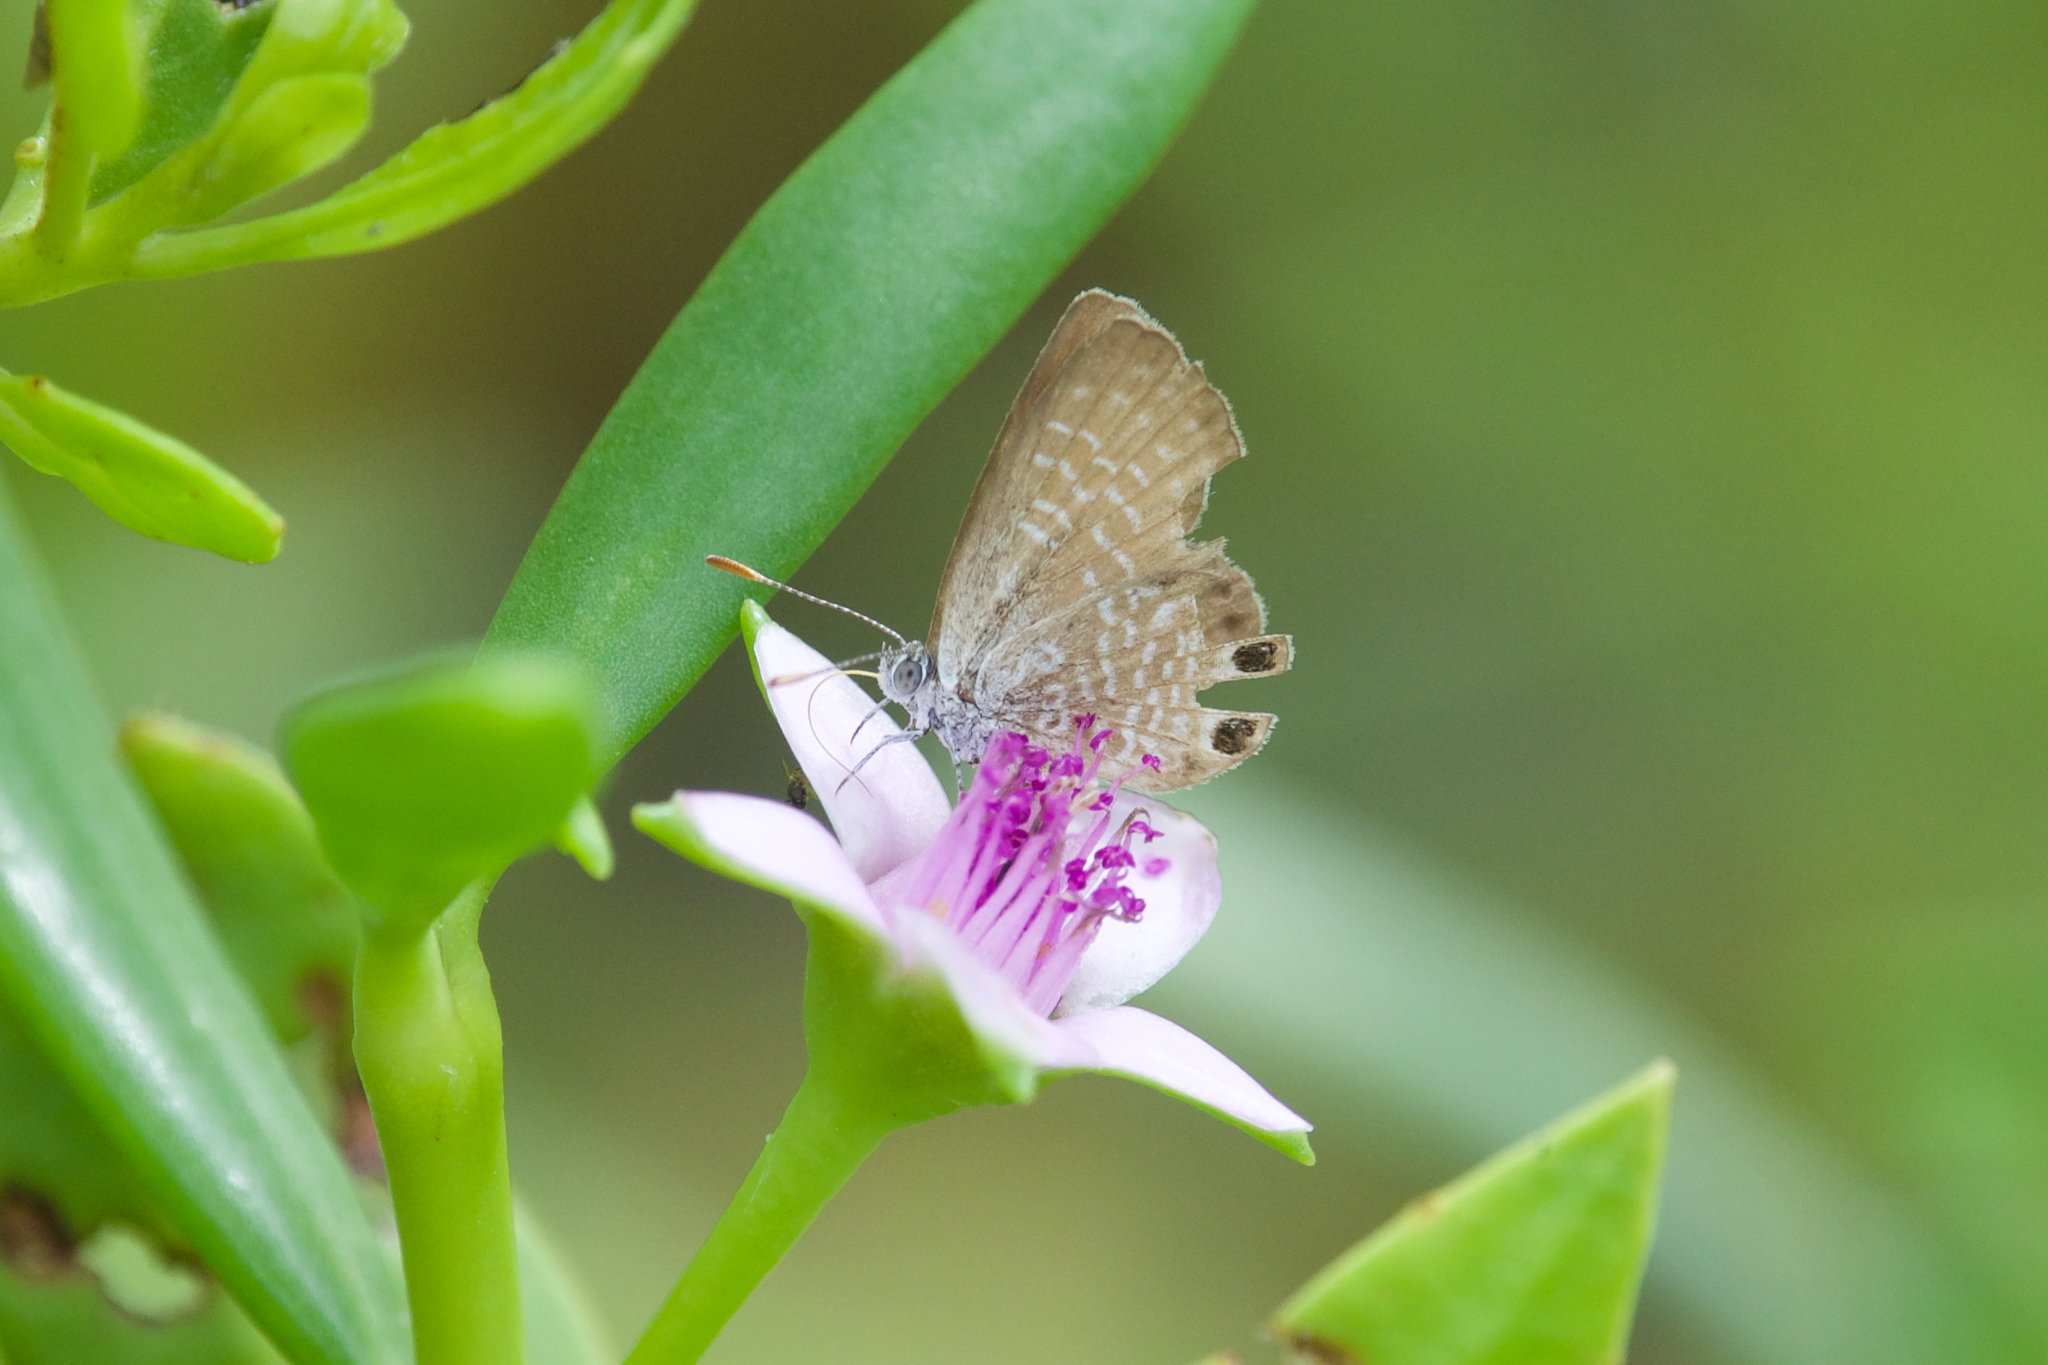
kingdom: Animalia
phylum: Arthropoda
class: Insecta
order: Lepidoptera
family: Lycaenidae
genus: Brephidium
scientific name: Brephidium isophthalma
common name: Eastern pygmy-blue
